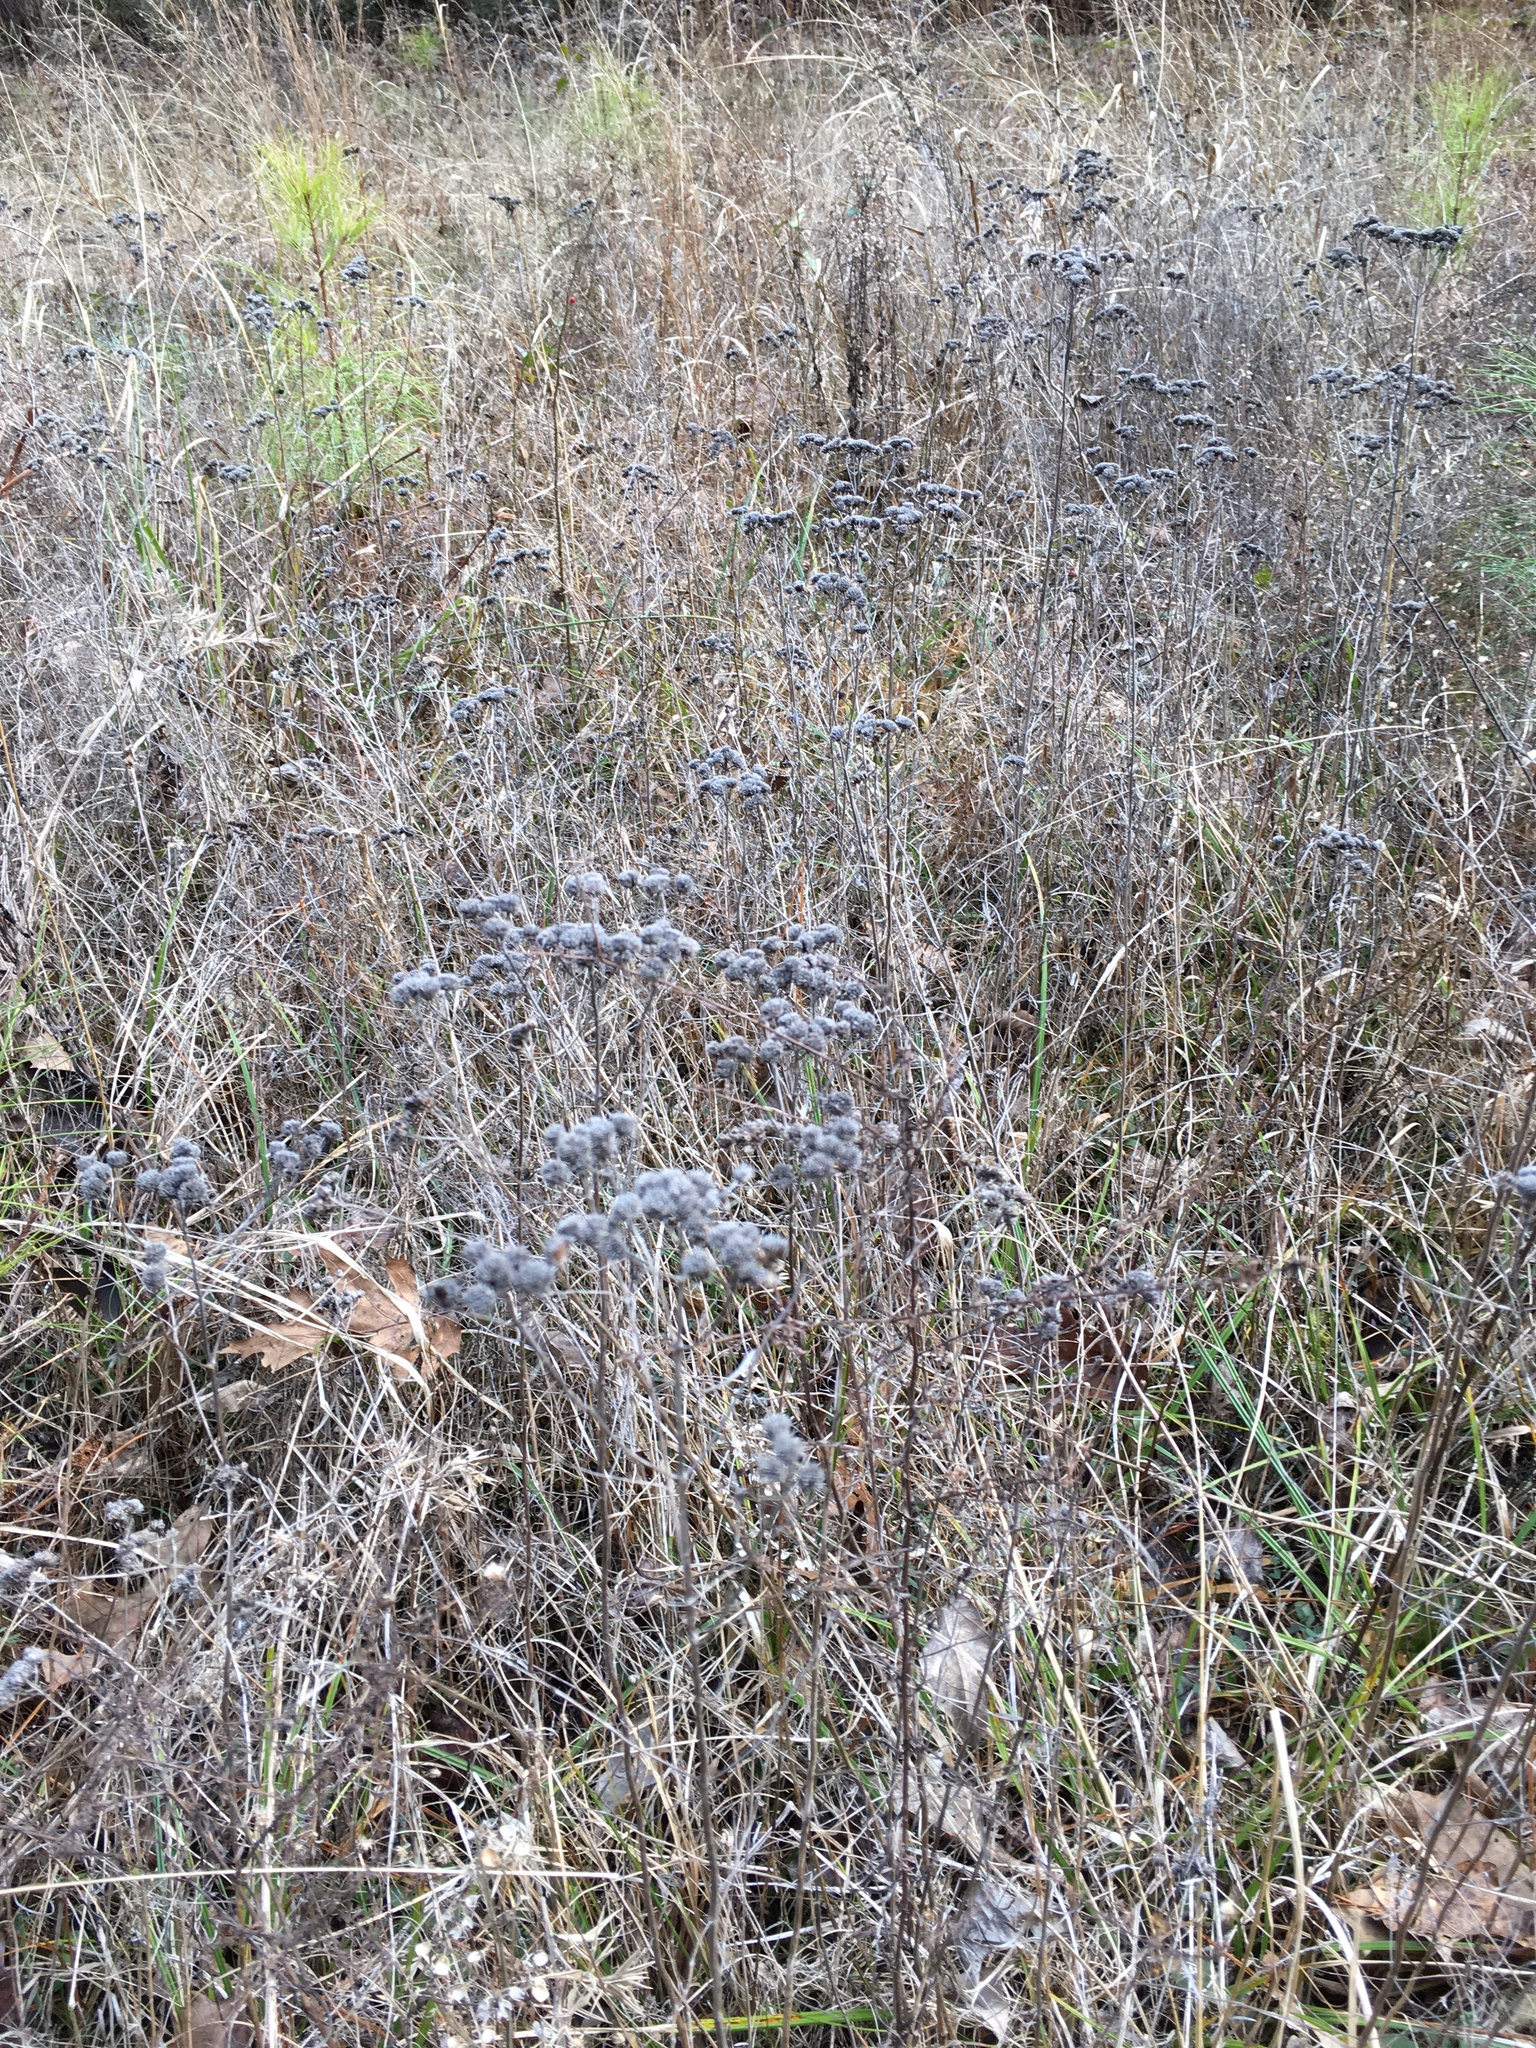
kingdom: Plantae
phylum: Tracheophyta
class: Magnoliopsida
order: Lamiales
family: Lamiaceae
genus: Pycnanthemum
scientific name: Pycnanthemum tenuifolium
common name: Narrow-leaf mountain-mint
